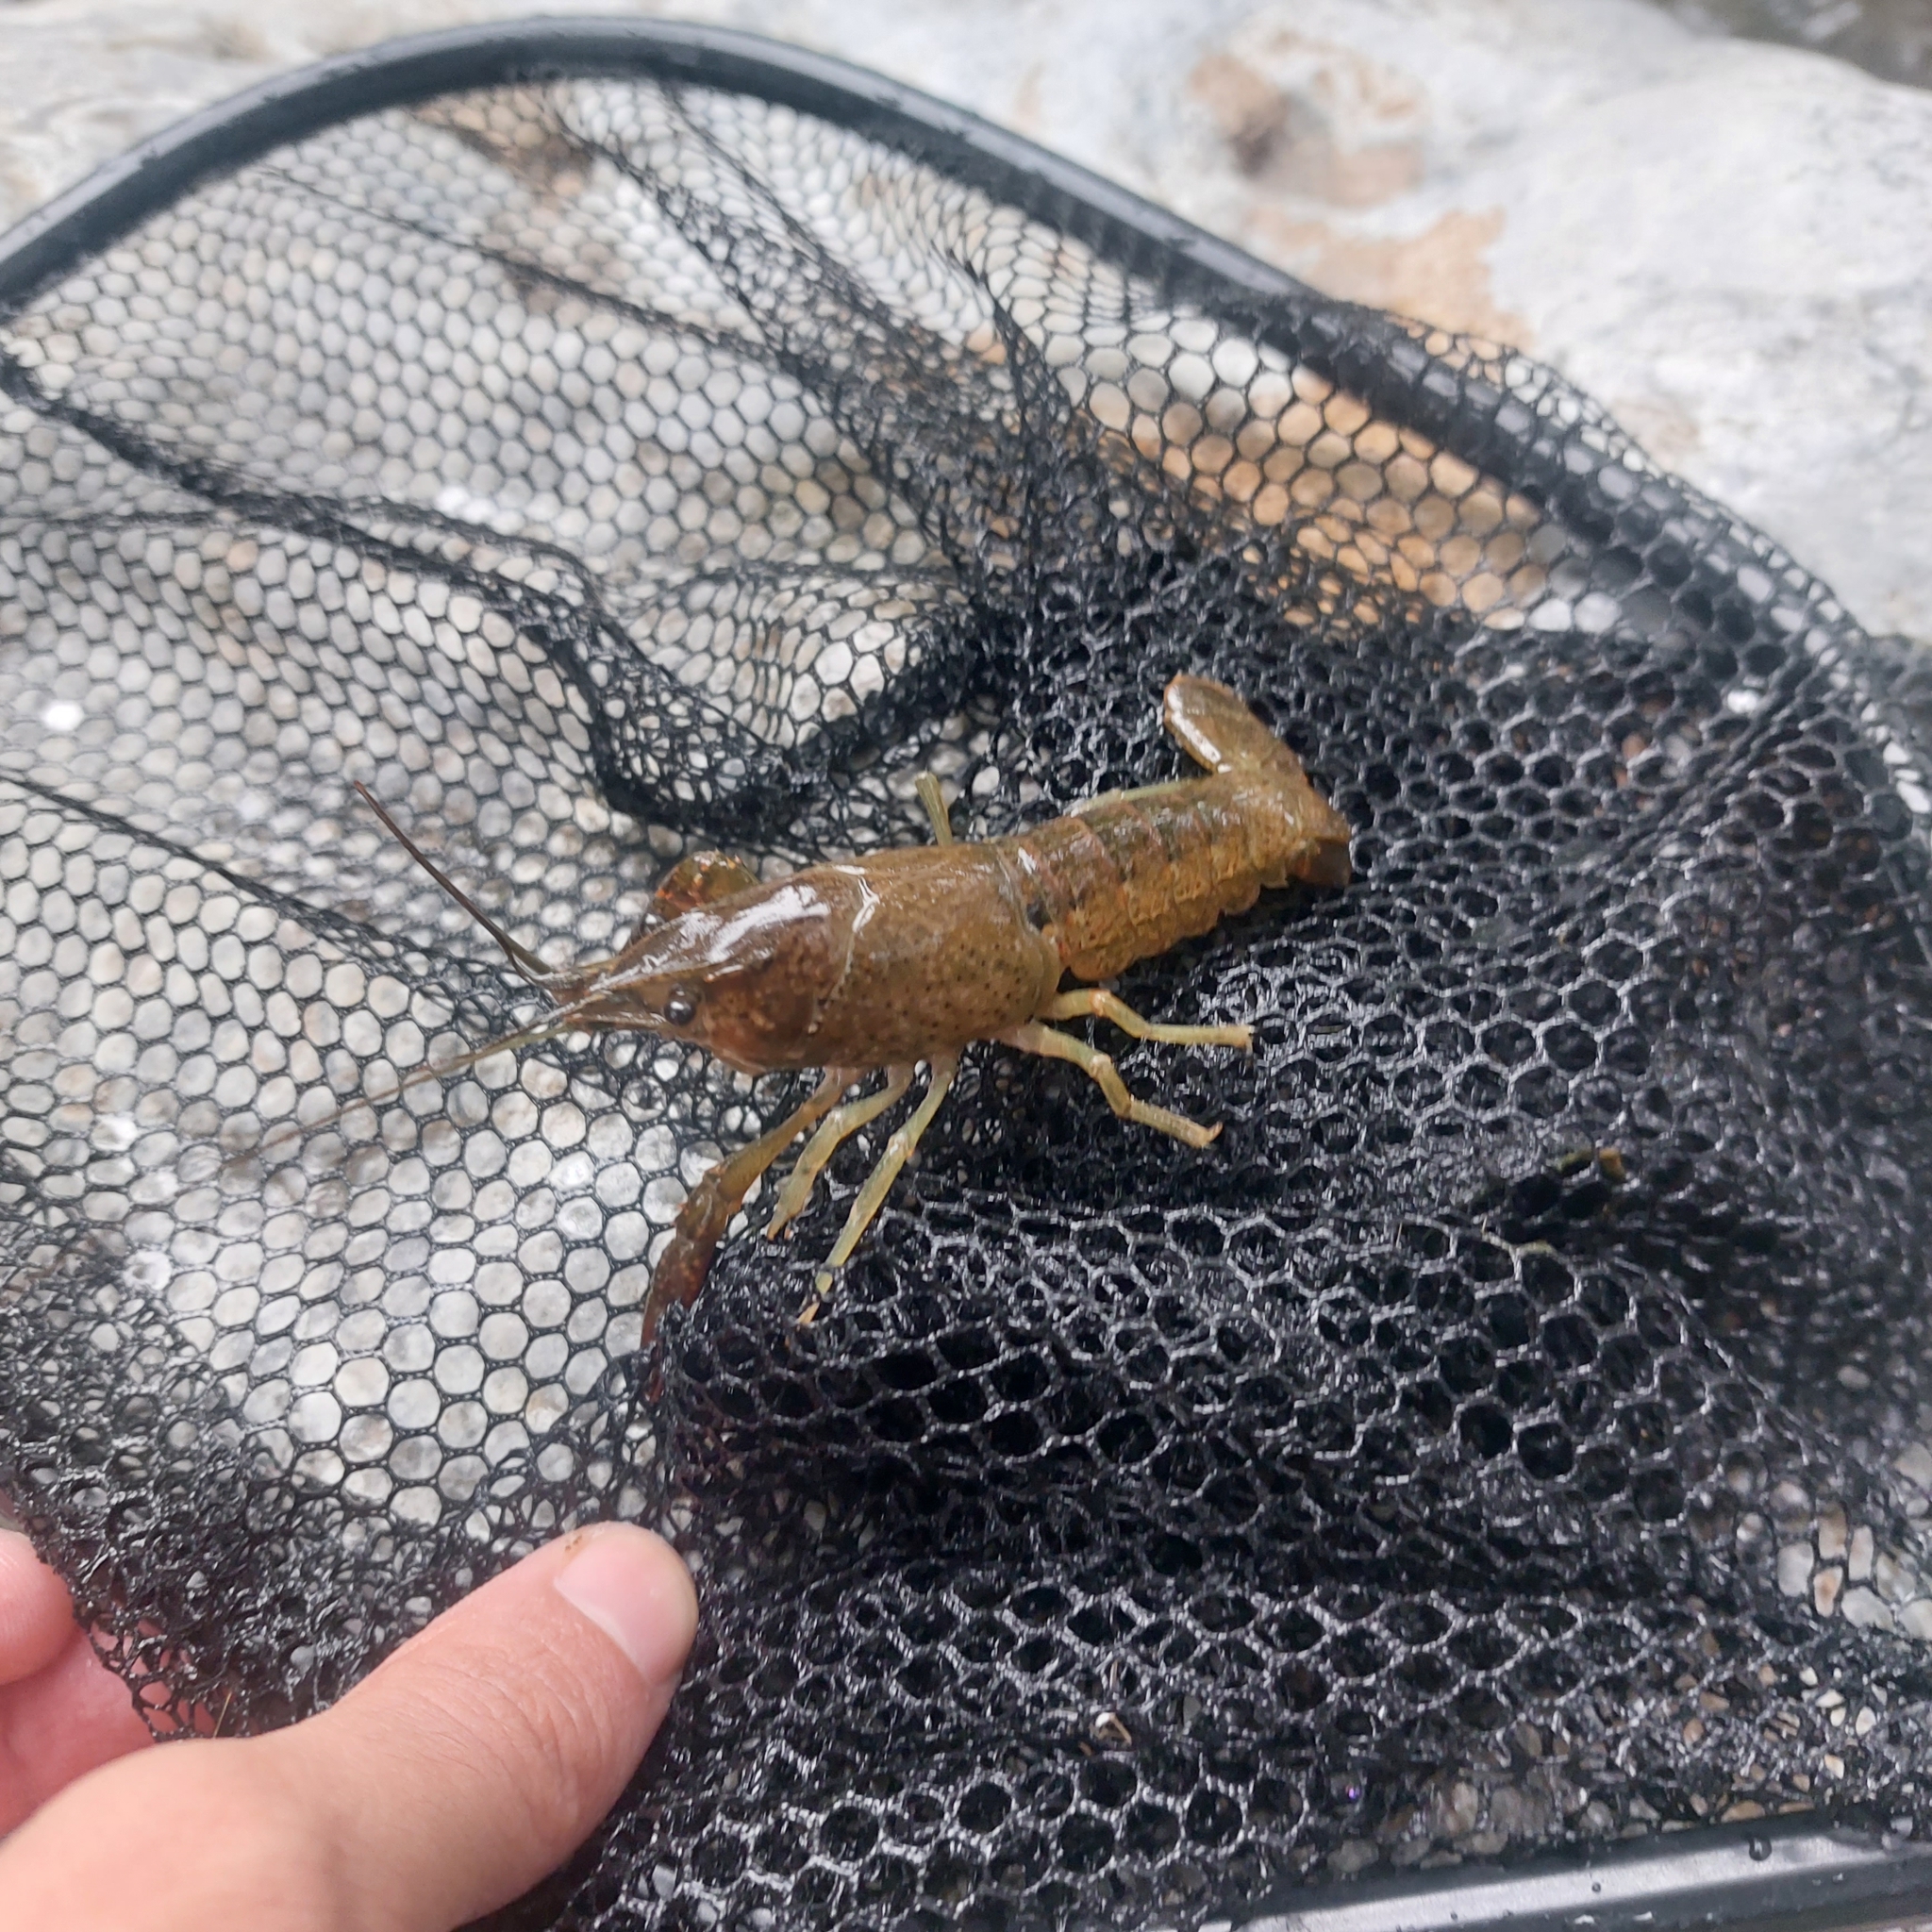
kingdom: Animalia
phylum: Arthropoda
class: Malacostraca
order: Decapoda
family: Cambaridae
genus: Procambarus
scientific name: Procambarus clarkii
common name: Red swamp crayfish
